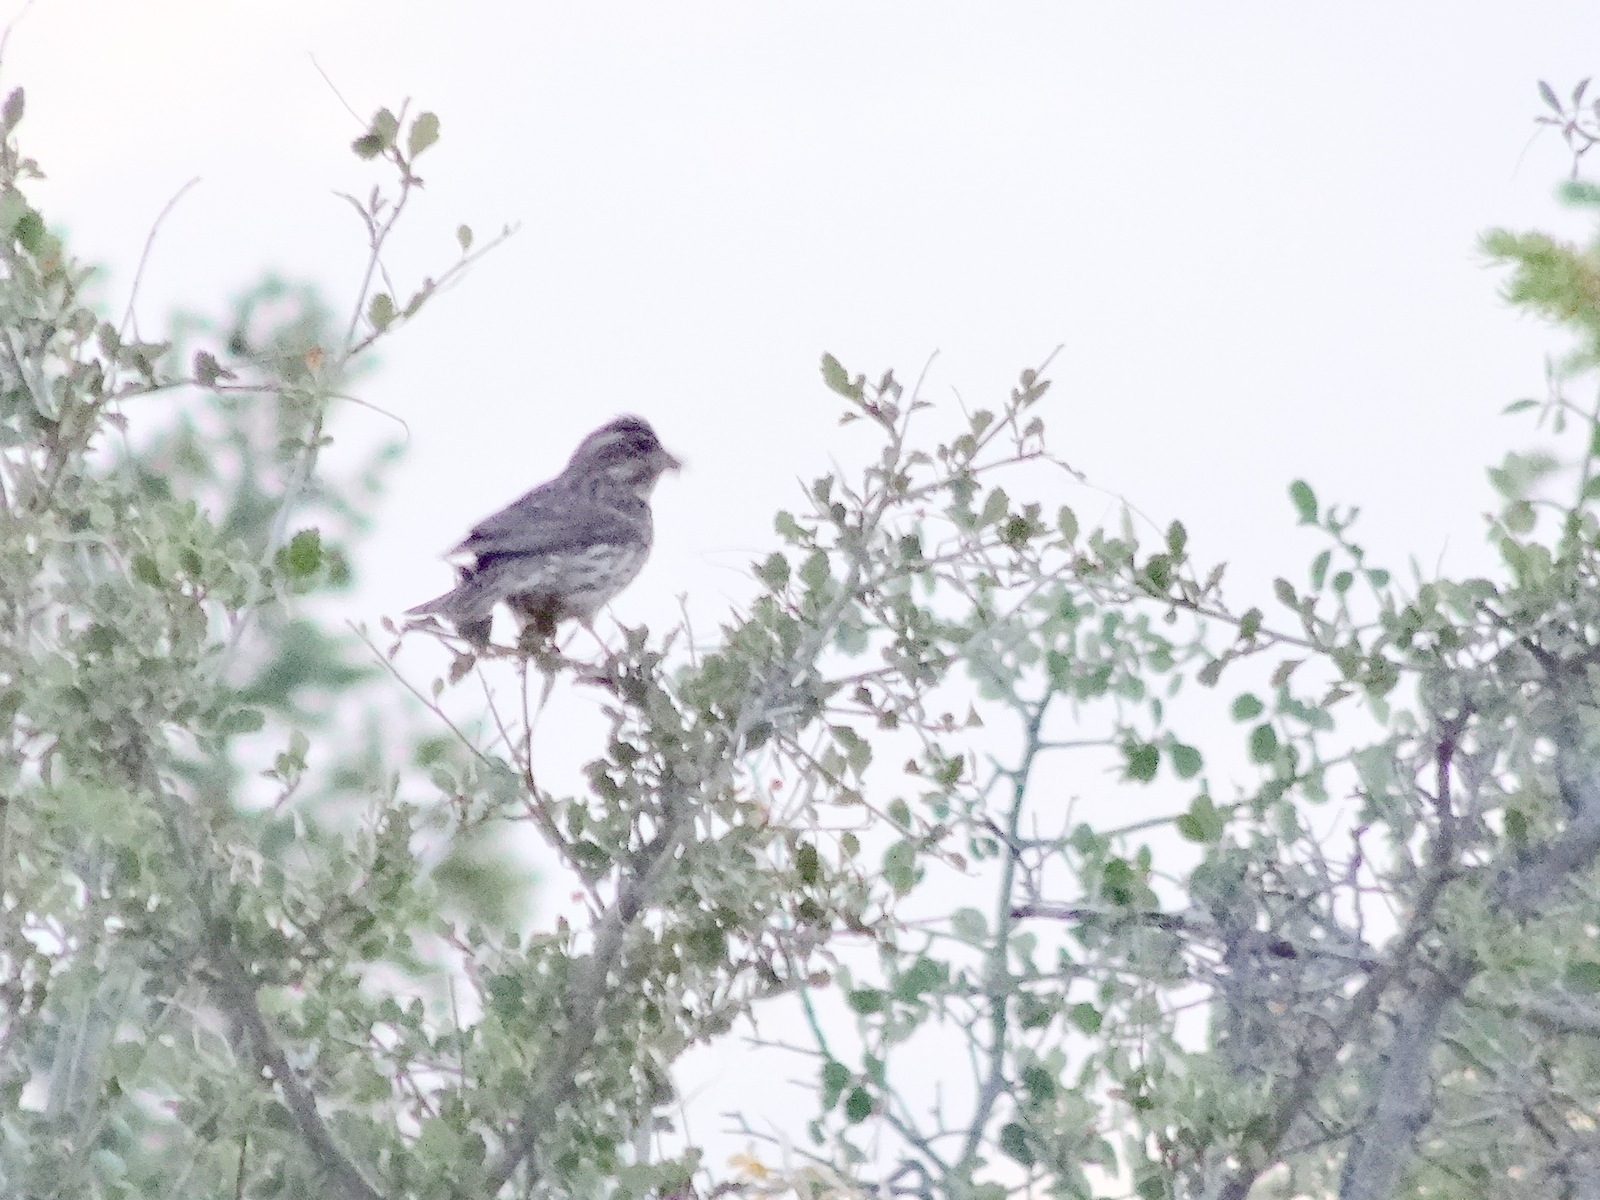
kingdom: Animalia
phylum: Chordata
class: Aves
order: Passeriformes
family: Fringillidae
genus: Haemorhous
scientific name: Haemorhous cassinii
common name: Cassin's finch
